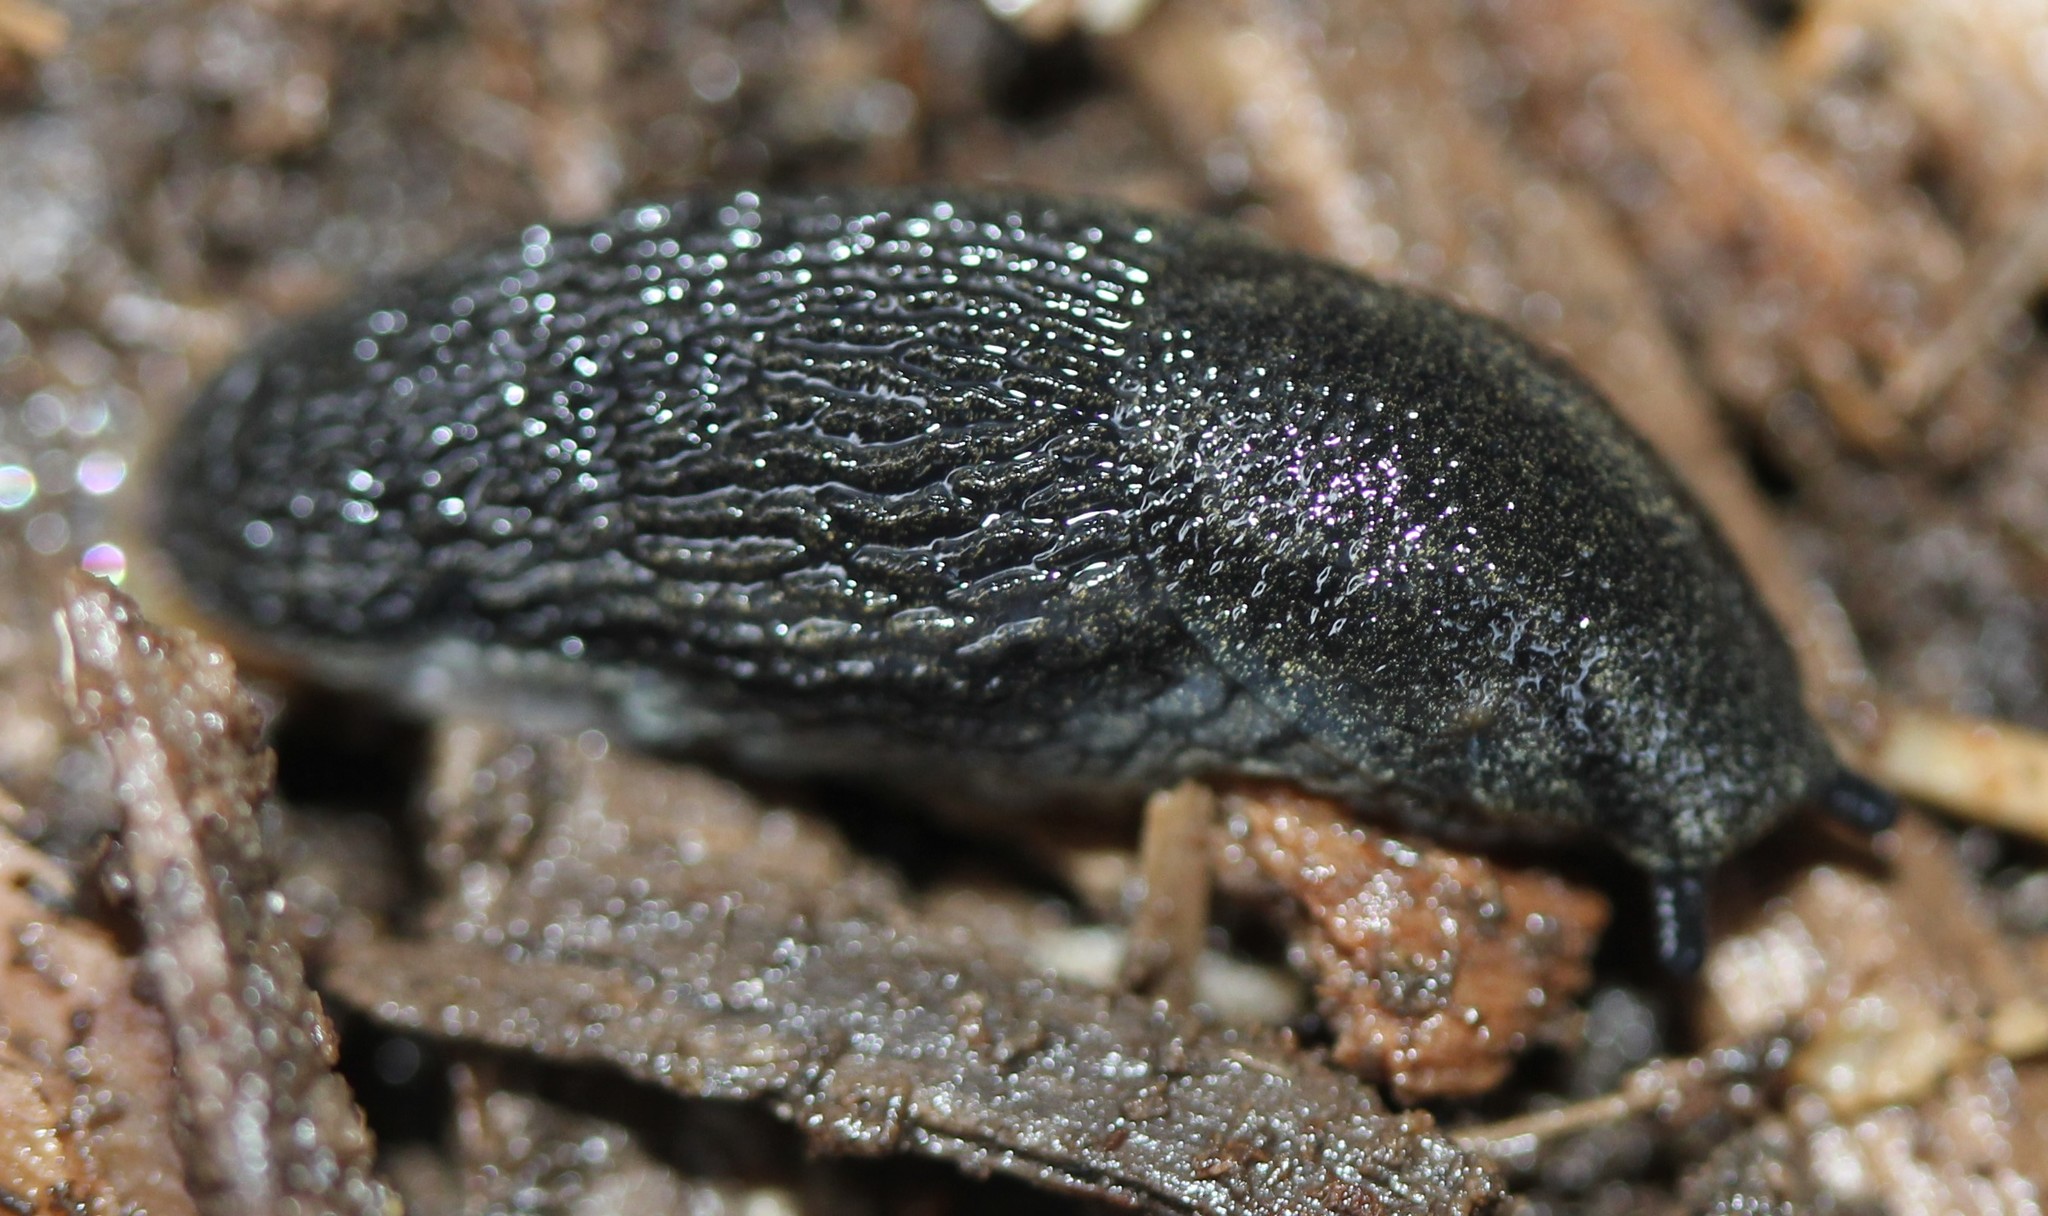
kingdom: Animalia
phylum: Mollusca
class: Gastropoda
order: Stylommatophora
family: Arionidae
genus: Arion
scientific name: Arion hortensis
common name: Garden arion
